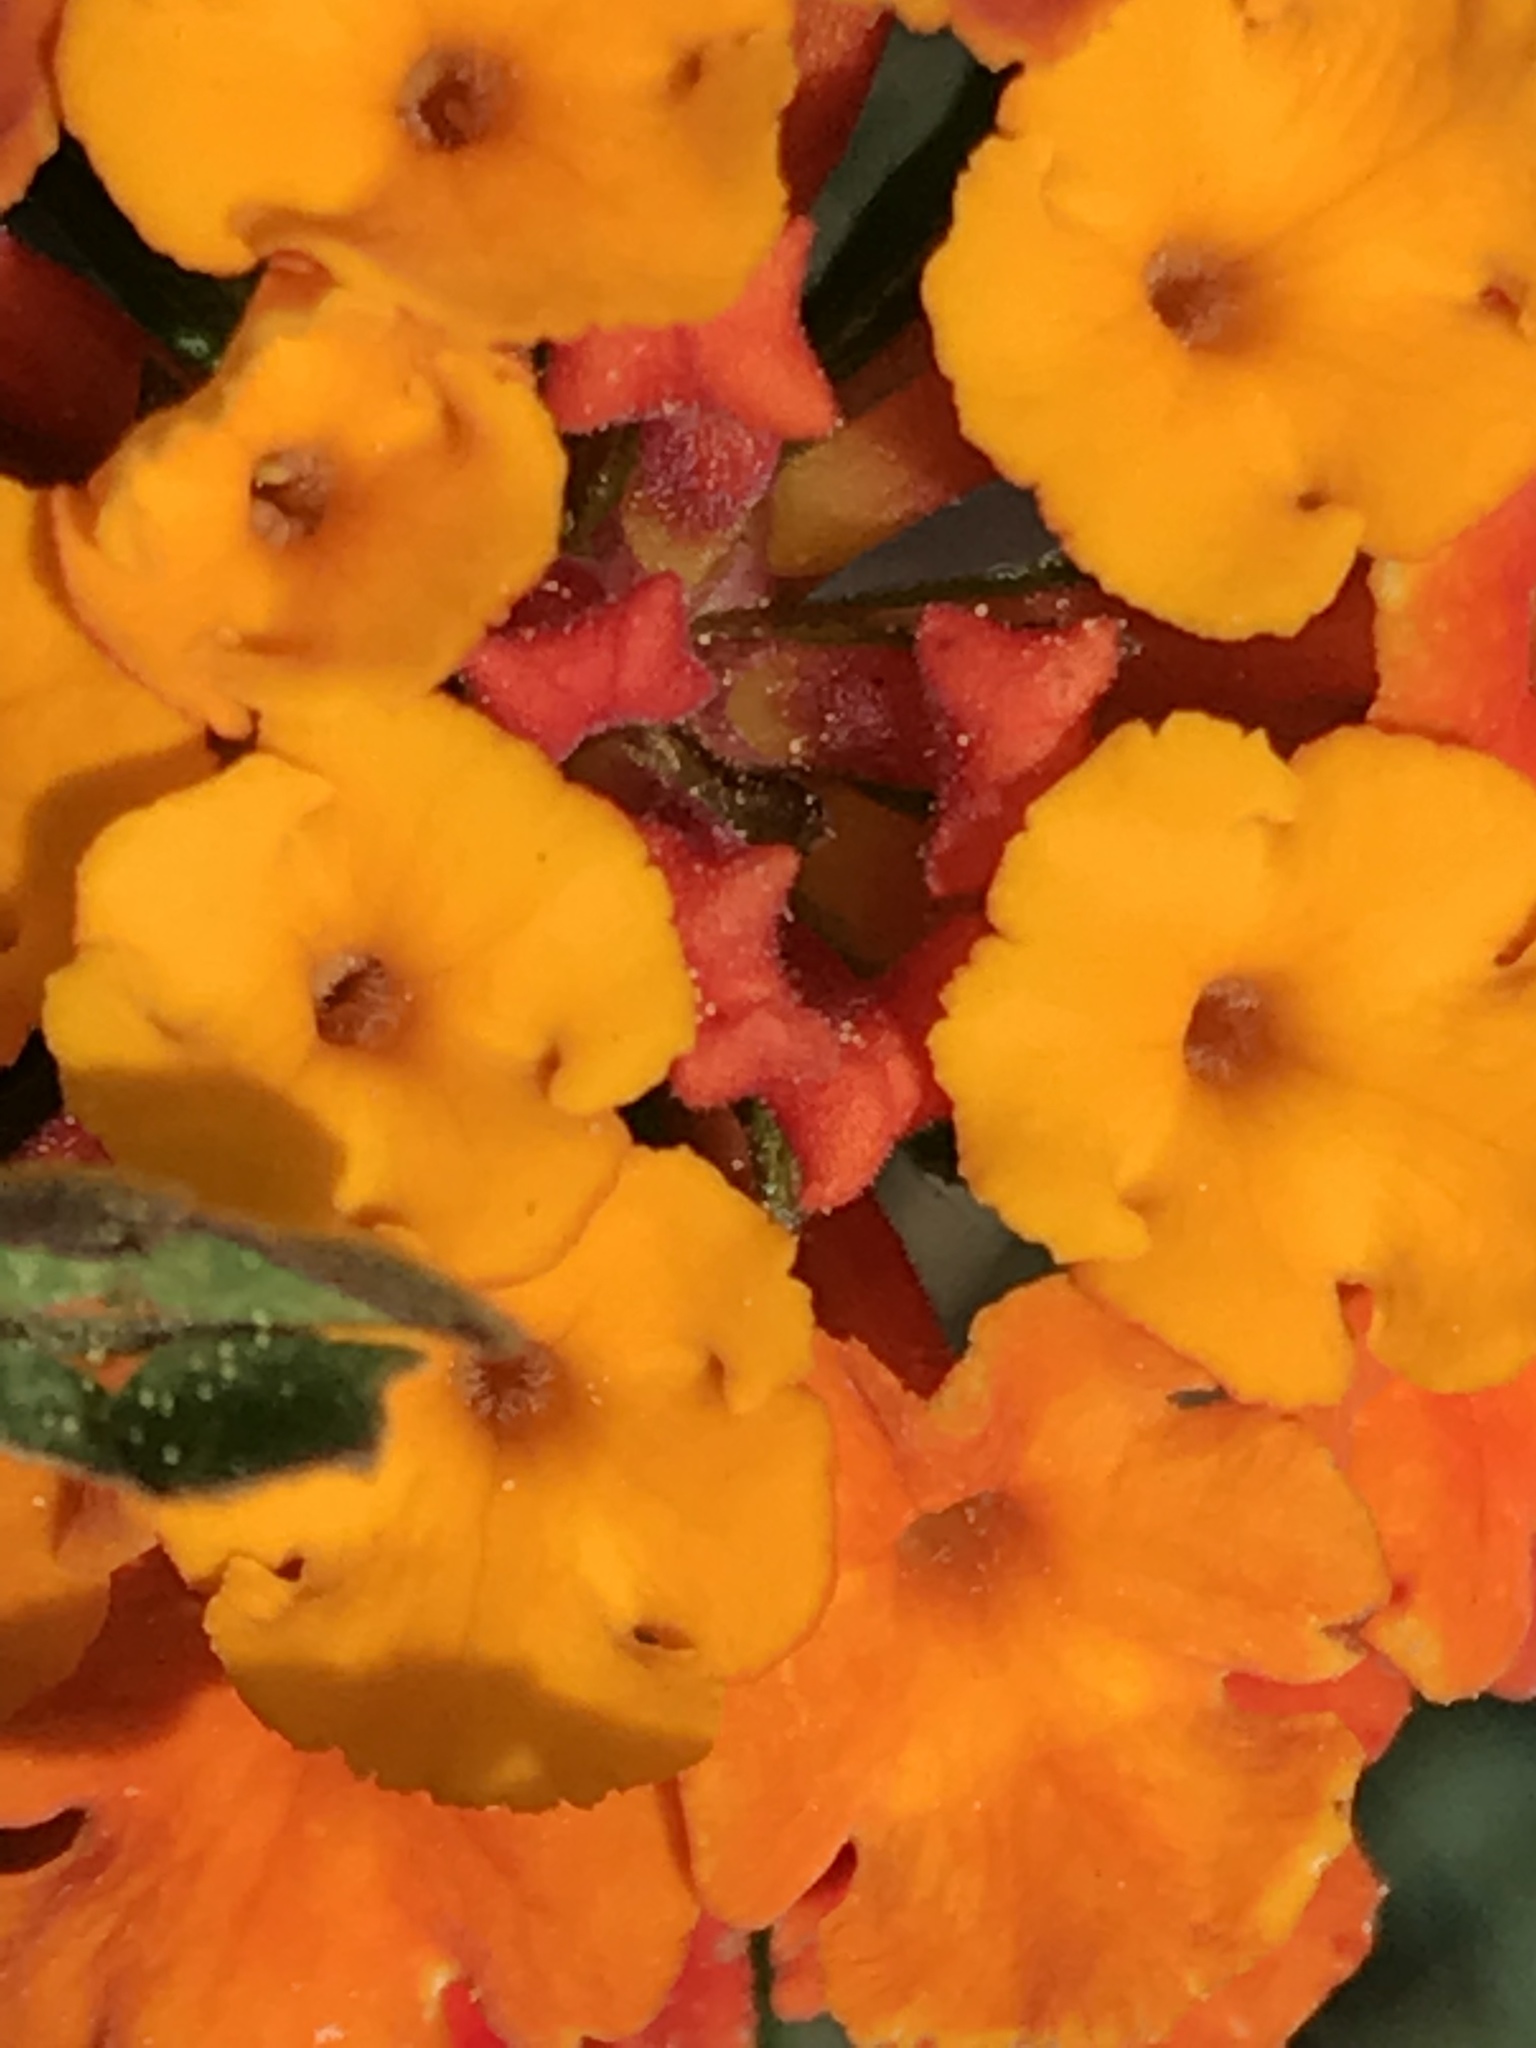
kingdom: Plantae
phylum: Tracheophyta
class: Magnoliopsida
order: Lamiales
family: Verbenaceae
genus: Lantana
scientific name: Lantana camara
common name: Lantana
